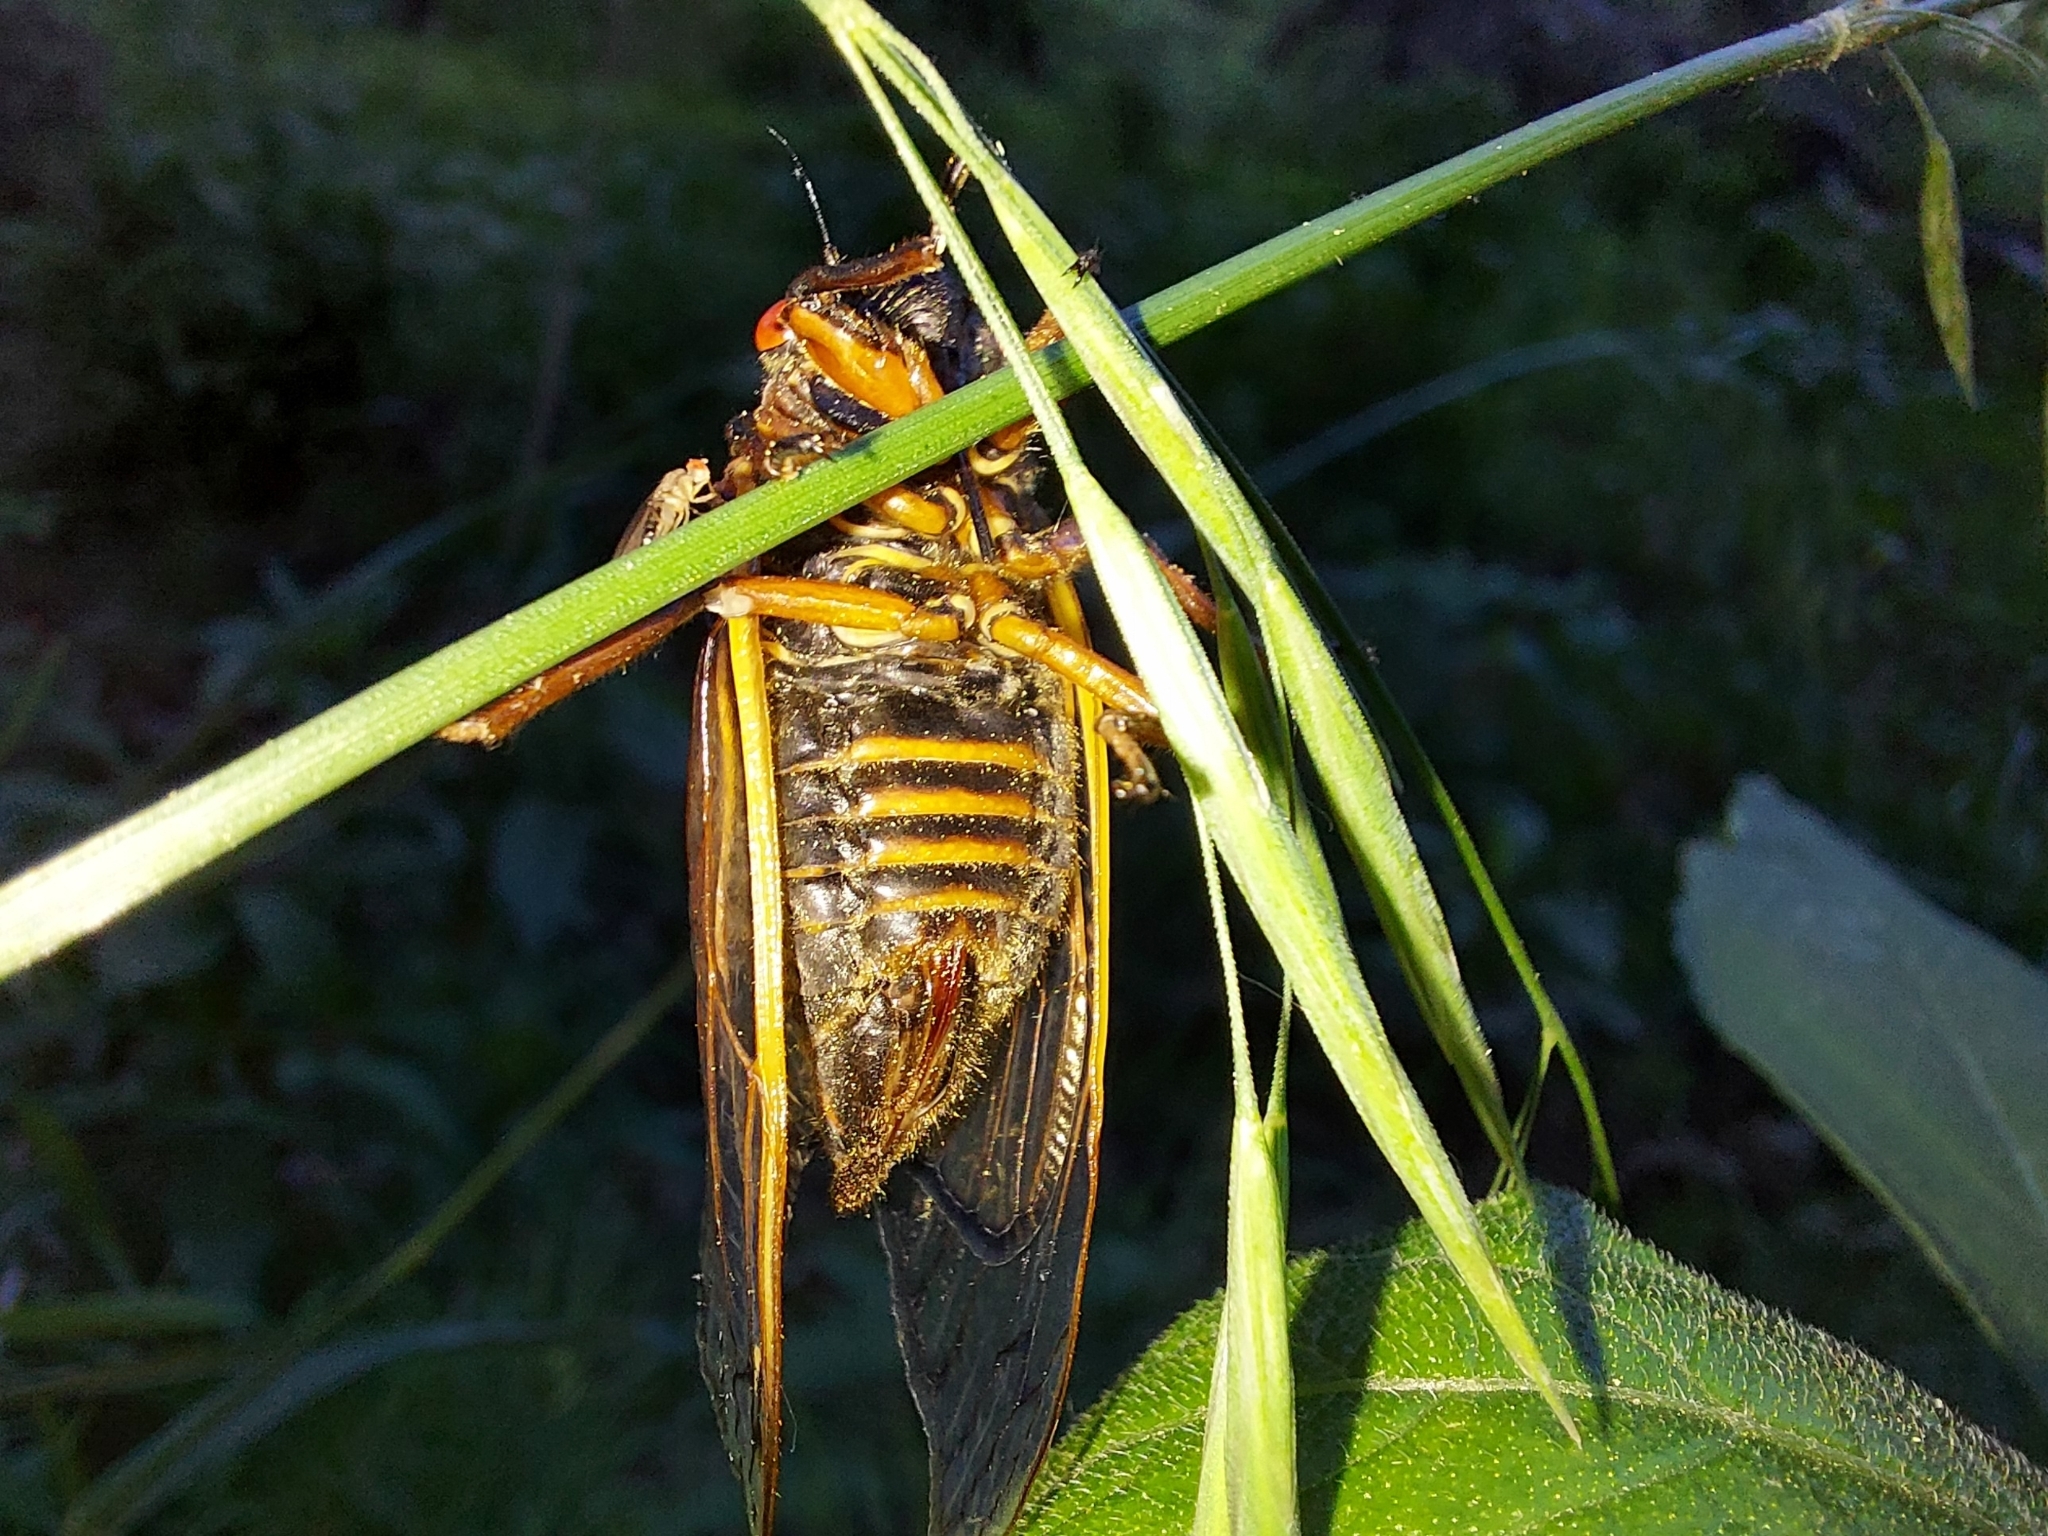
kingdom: Animalia
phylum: Arthropoda
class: Insecta
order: Hemiptera
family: Cicadidae
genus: Magicicada
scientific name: Magicicada septendecim
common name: Periodical cicada
